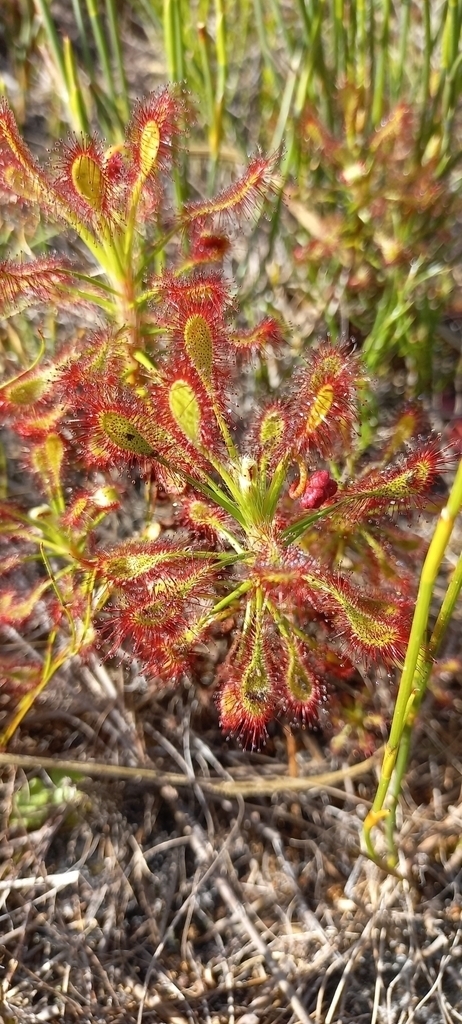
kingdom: Plantae
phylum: Tracheophyta
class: Magnoliopsida
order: Caryophyllales
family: Droseraceae
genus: Drosera
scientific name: Drosera glabripes
